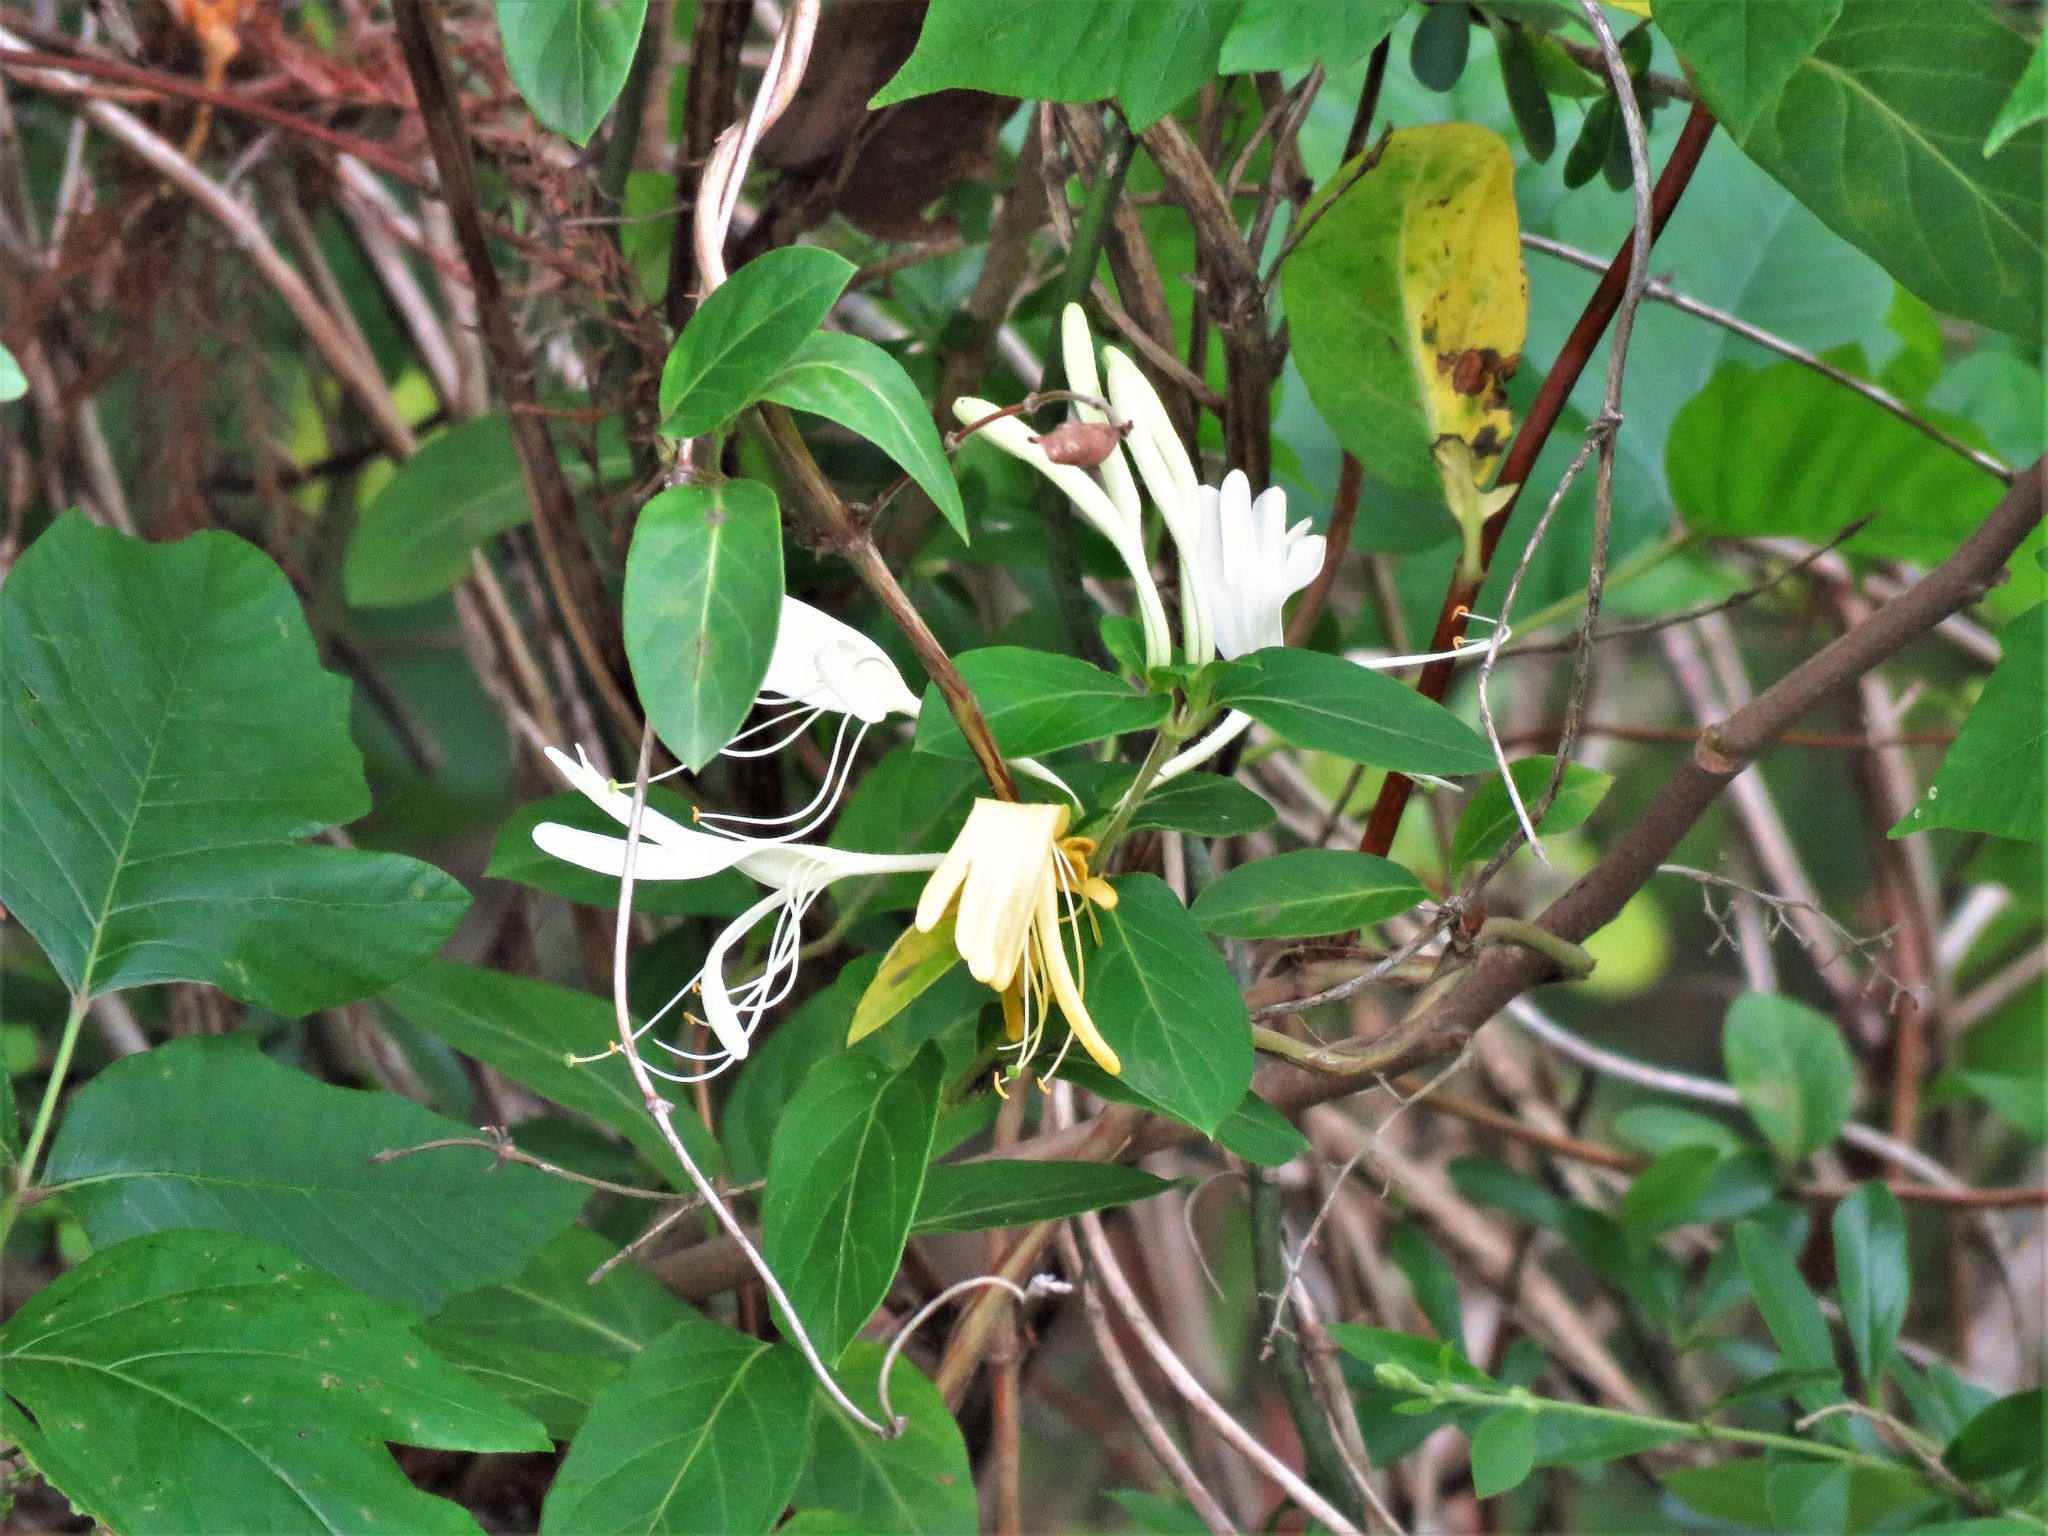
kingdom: Plantae
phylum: Tracheophyta
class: Magnoliopsida
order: Dipsacales
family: Caprifoliaceae
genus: Lonicera
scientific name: Lonicera japonica
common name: Japanese honeysuckle
